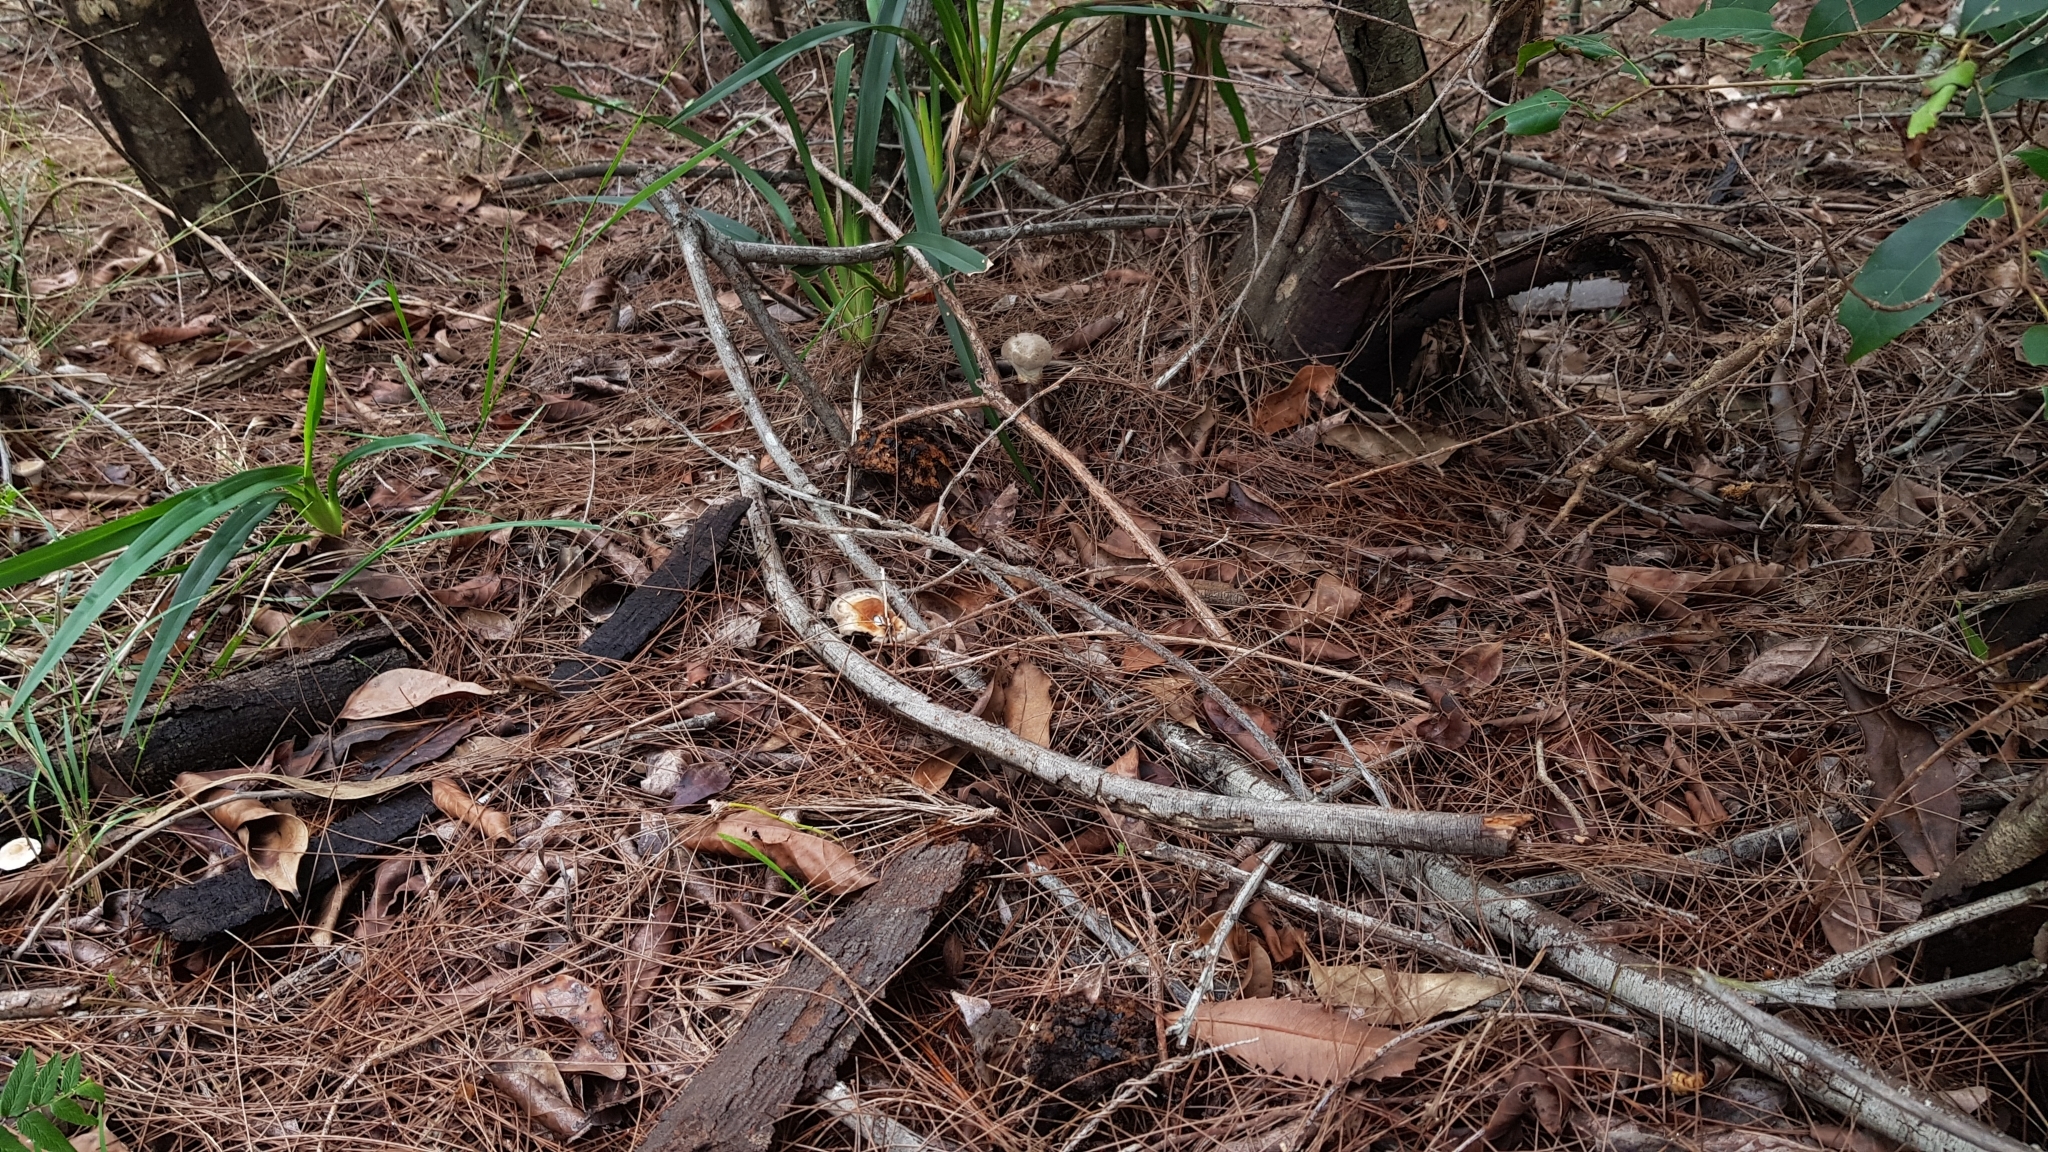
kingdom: Fungi
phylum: Basidiomycota
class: Agaricomycetes
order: Polyporales
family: Ganodermataceae
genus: Sanguinoderma
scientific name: Sanguinoderma rude
